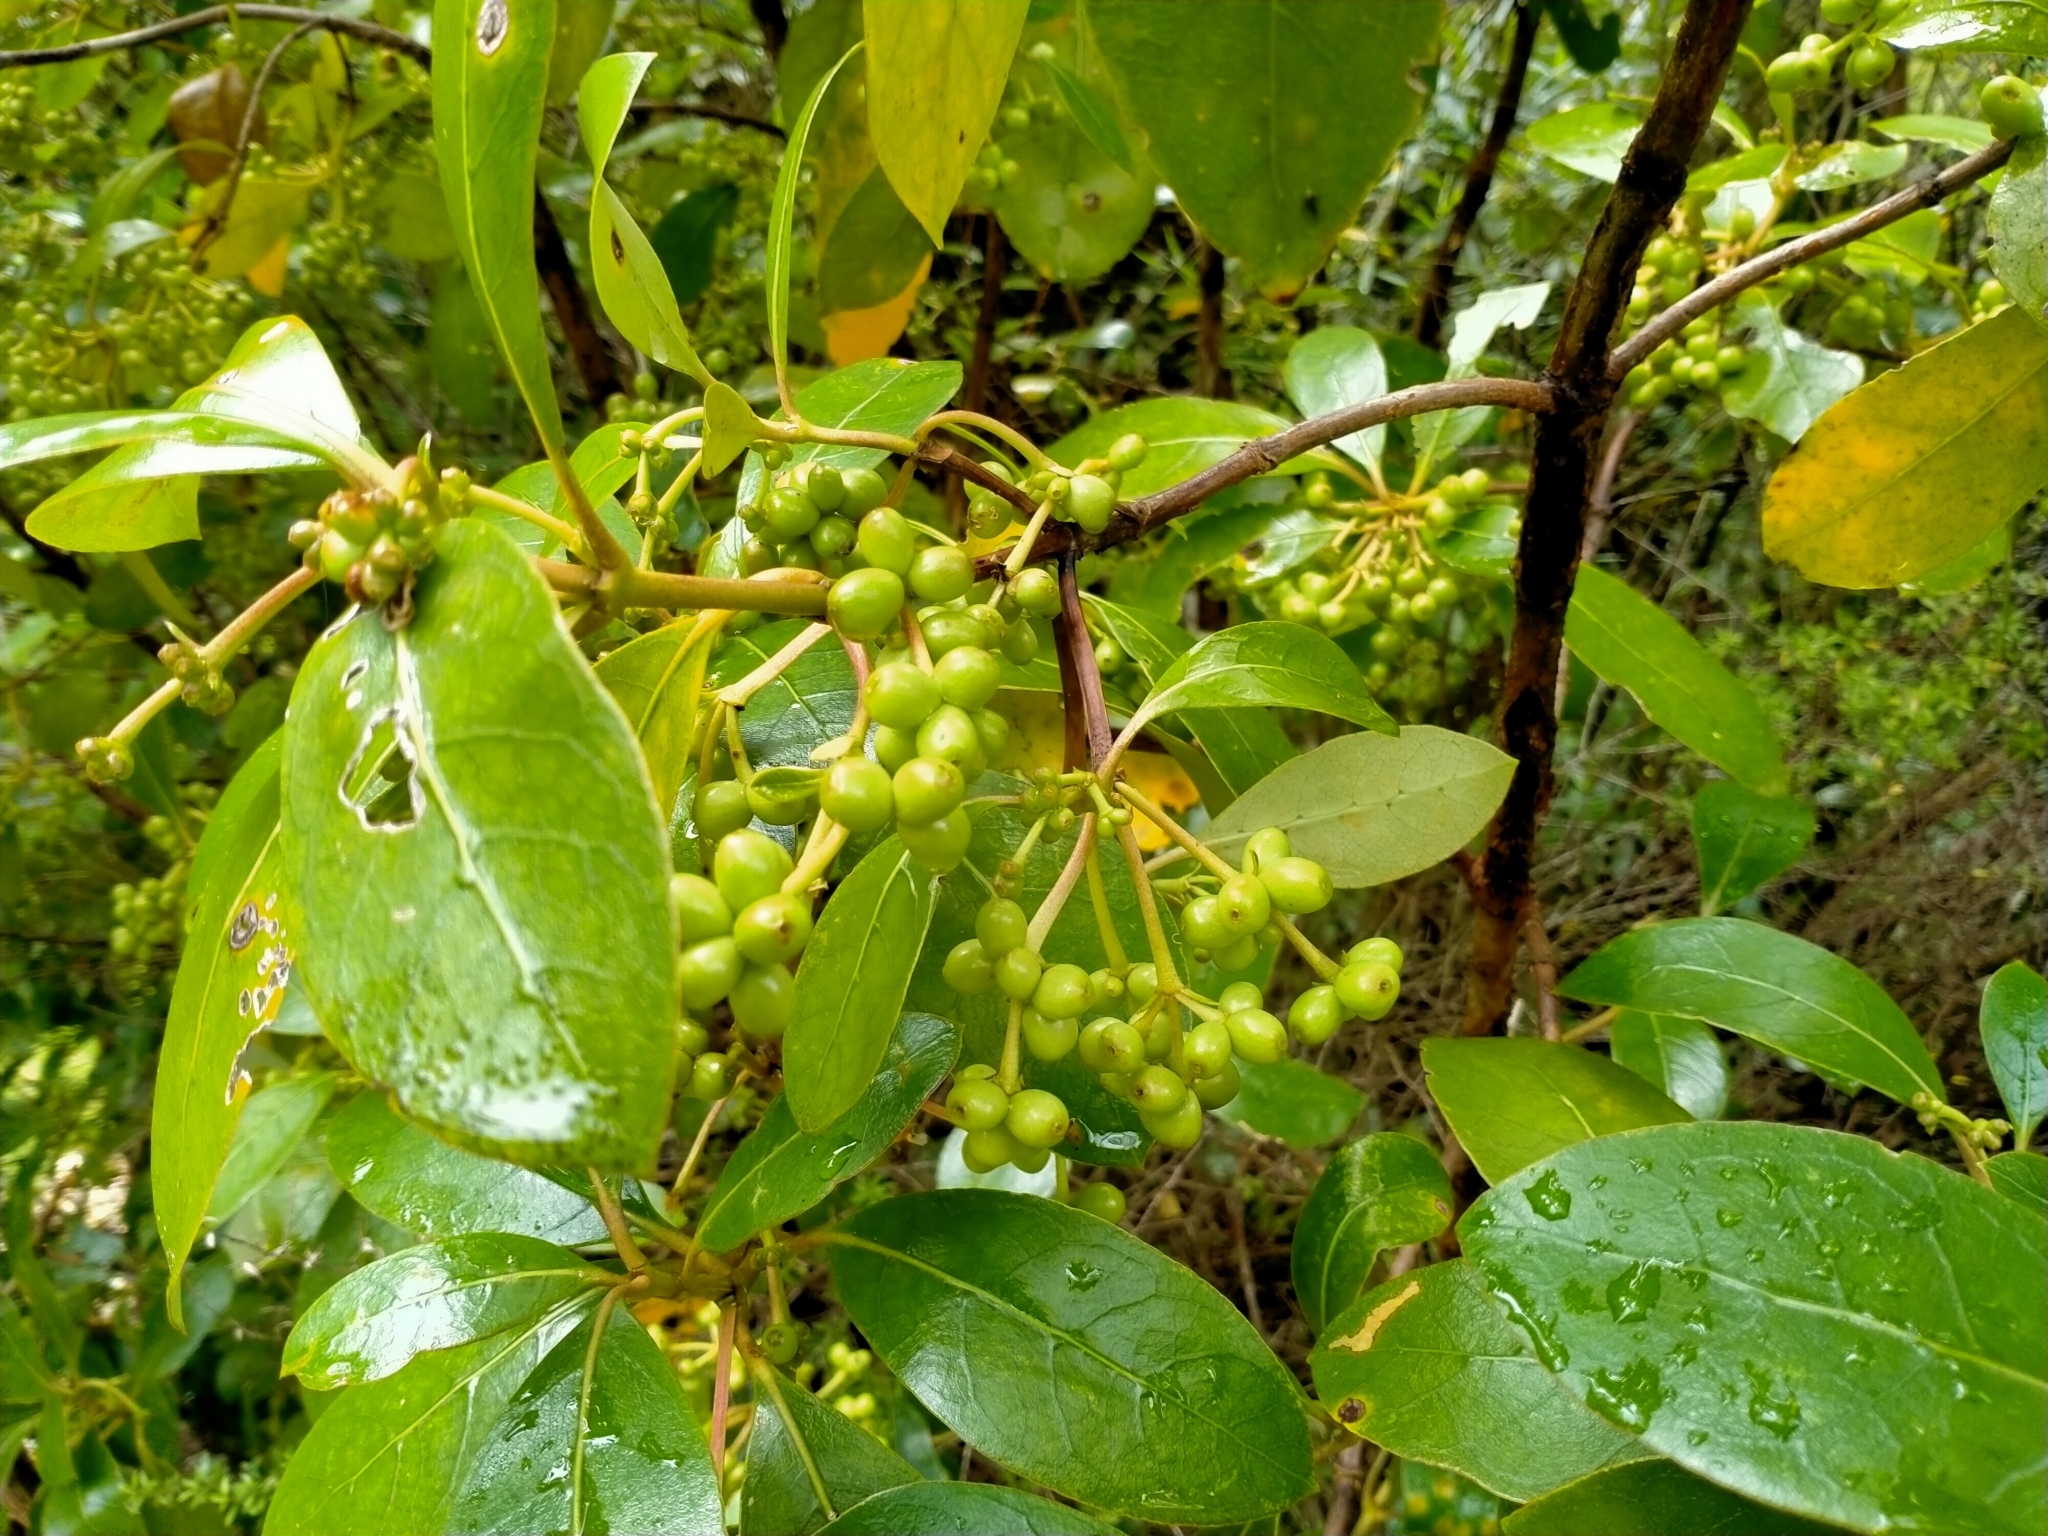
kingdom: Plantae
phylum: Tracheophyta
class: Magnoliopsida
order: Gentianales
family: Rubiaceae
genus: Coprosma
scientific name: Coprosma lucida
